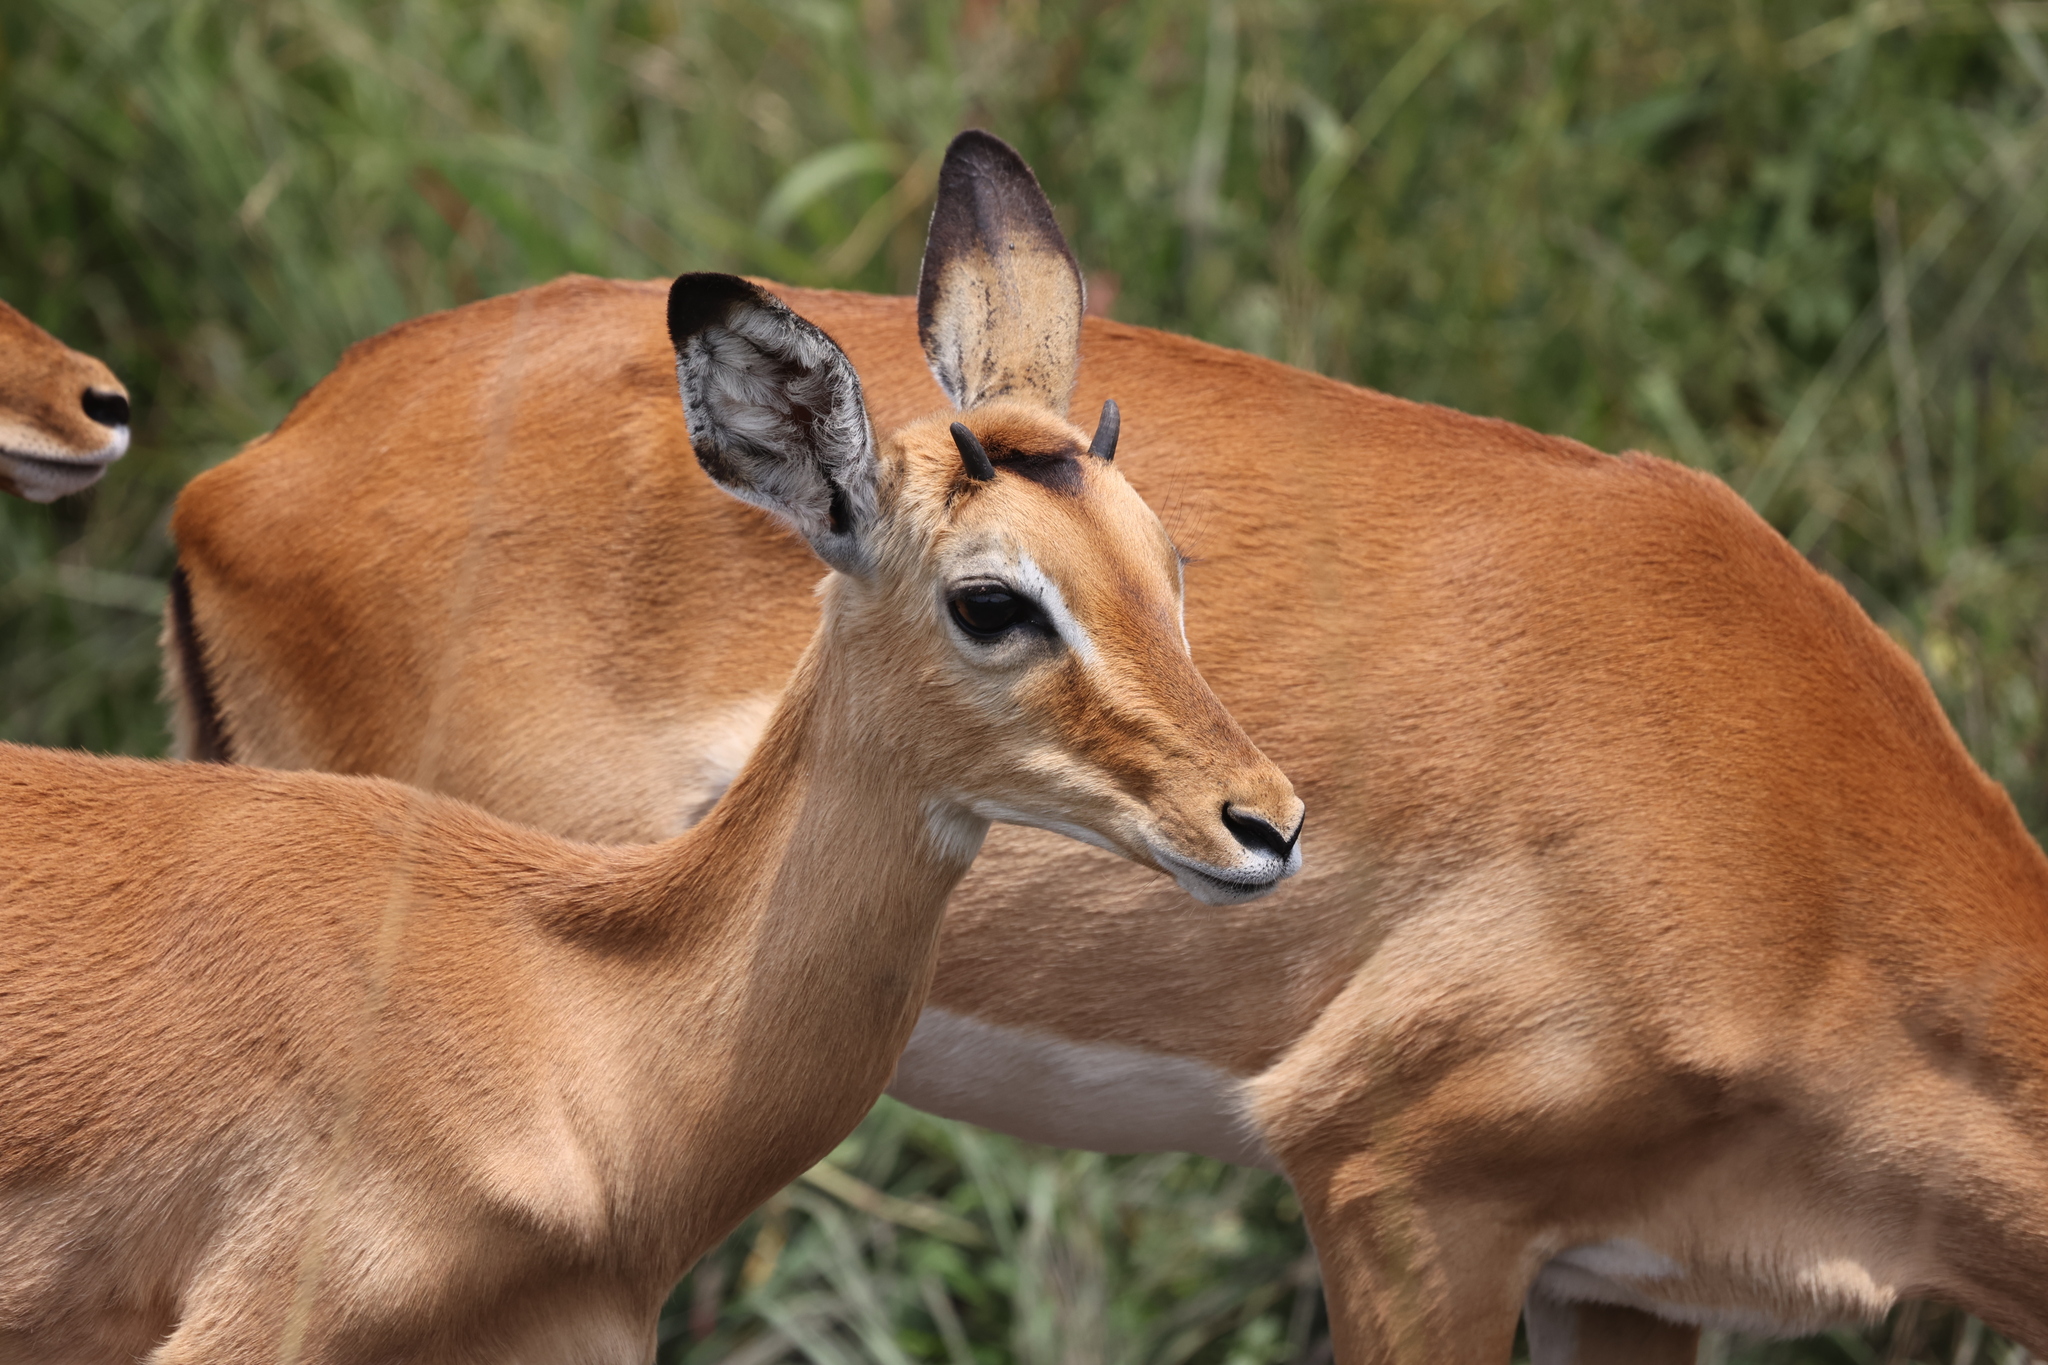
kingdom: Animalia
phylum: Chordata
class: Mammalia
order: Artiodactyla
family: Bovidae
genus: Aepyceros
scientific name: Aepyceros melampus
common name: Impala
